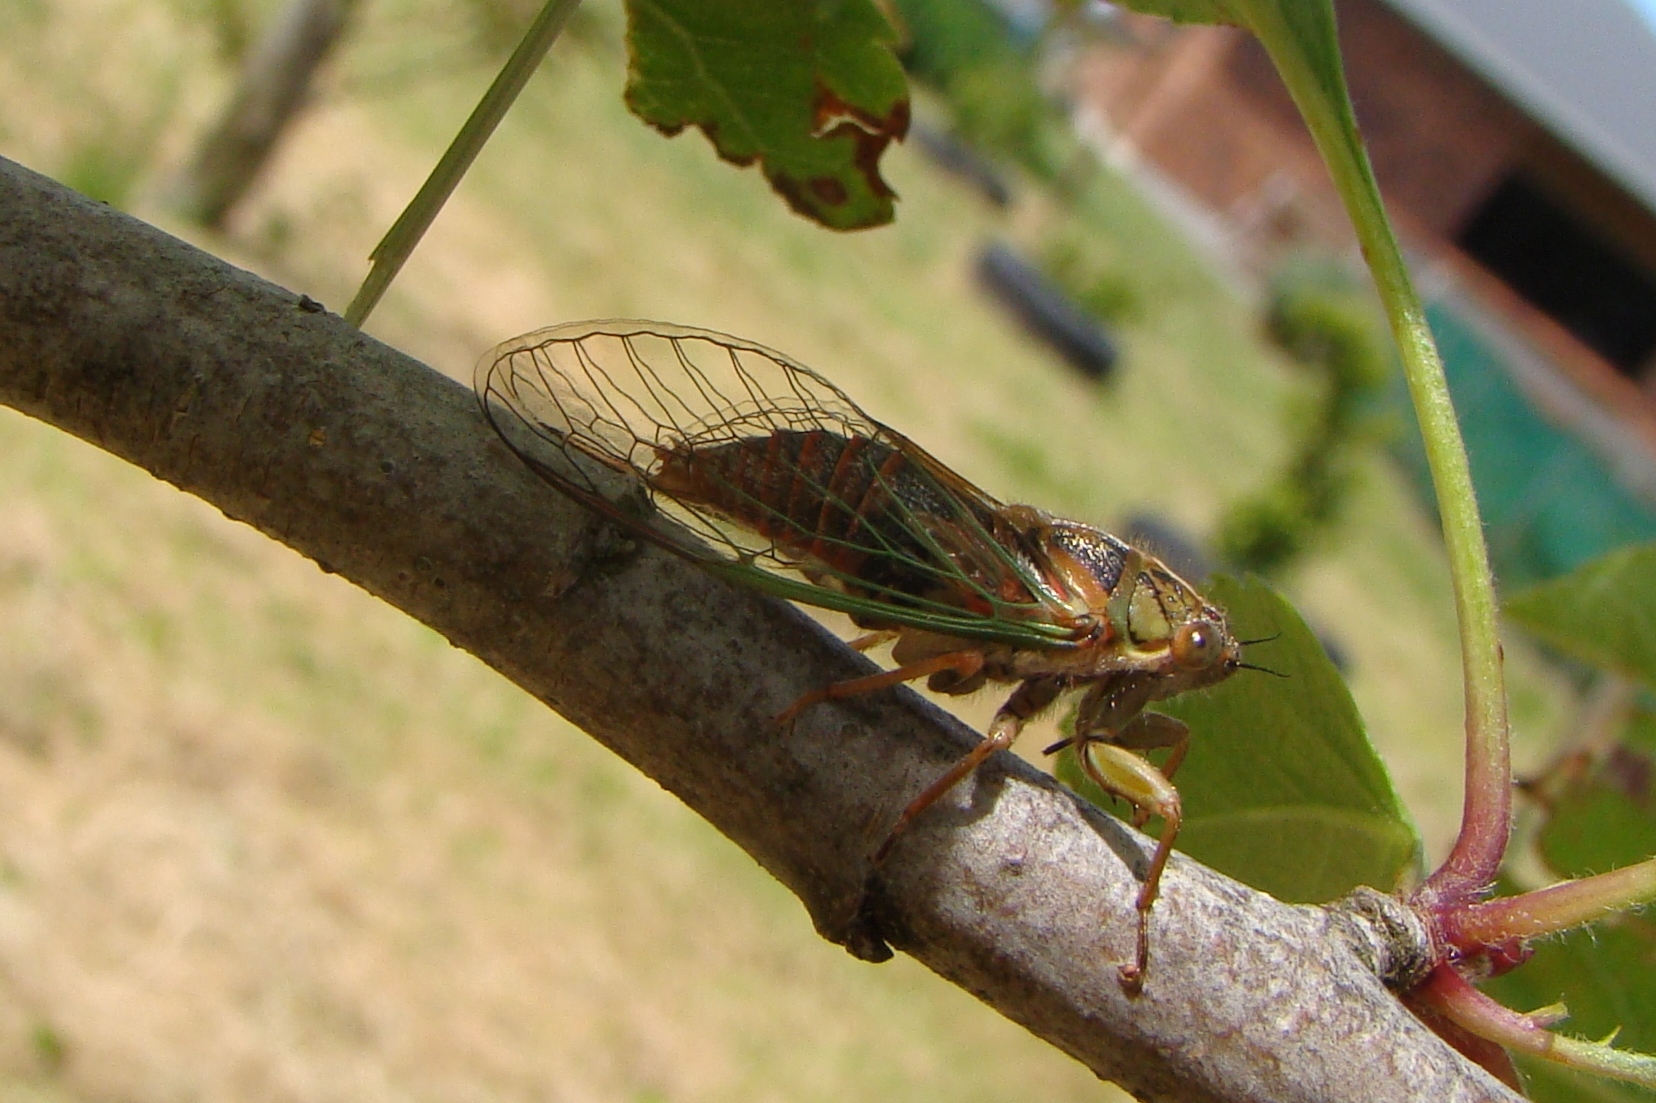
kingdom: Animalia
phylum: Arthropoda
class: Insecta
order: Hemiptera
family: Cicadidae
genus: Rhodopsalta
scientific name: Rhodopsalta cruentata
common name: Blood redtail cicada
